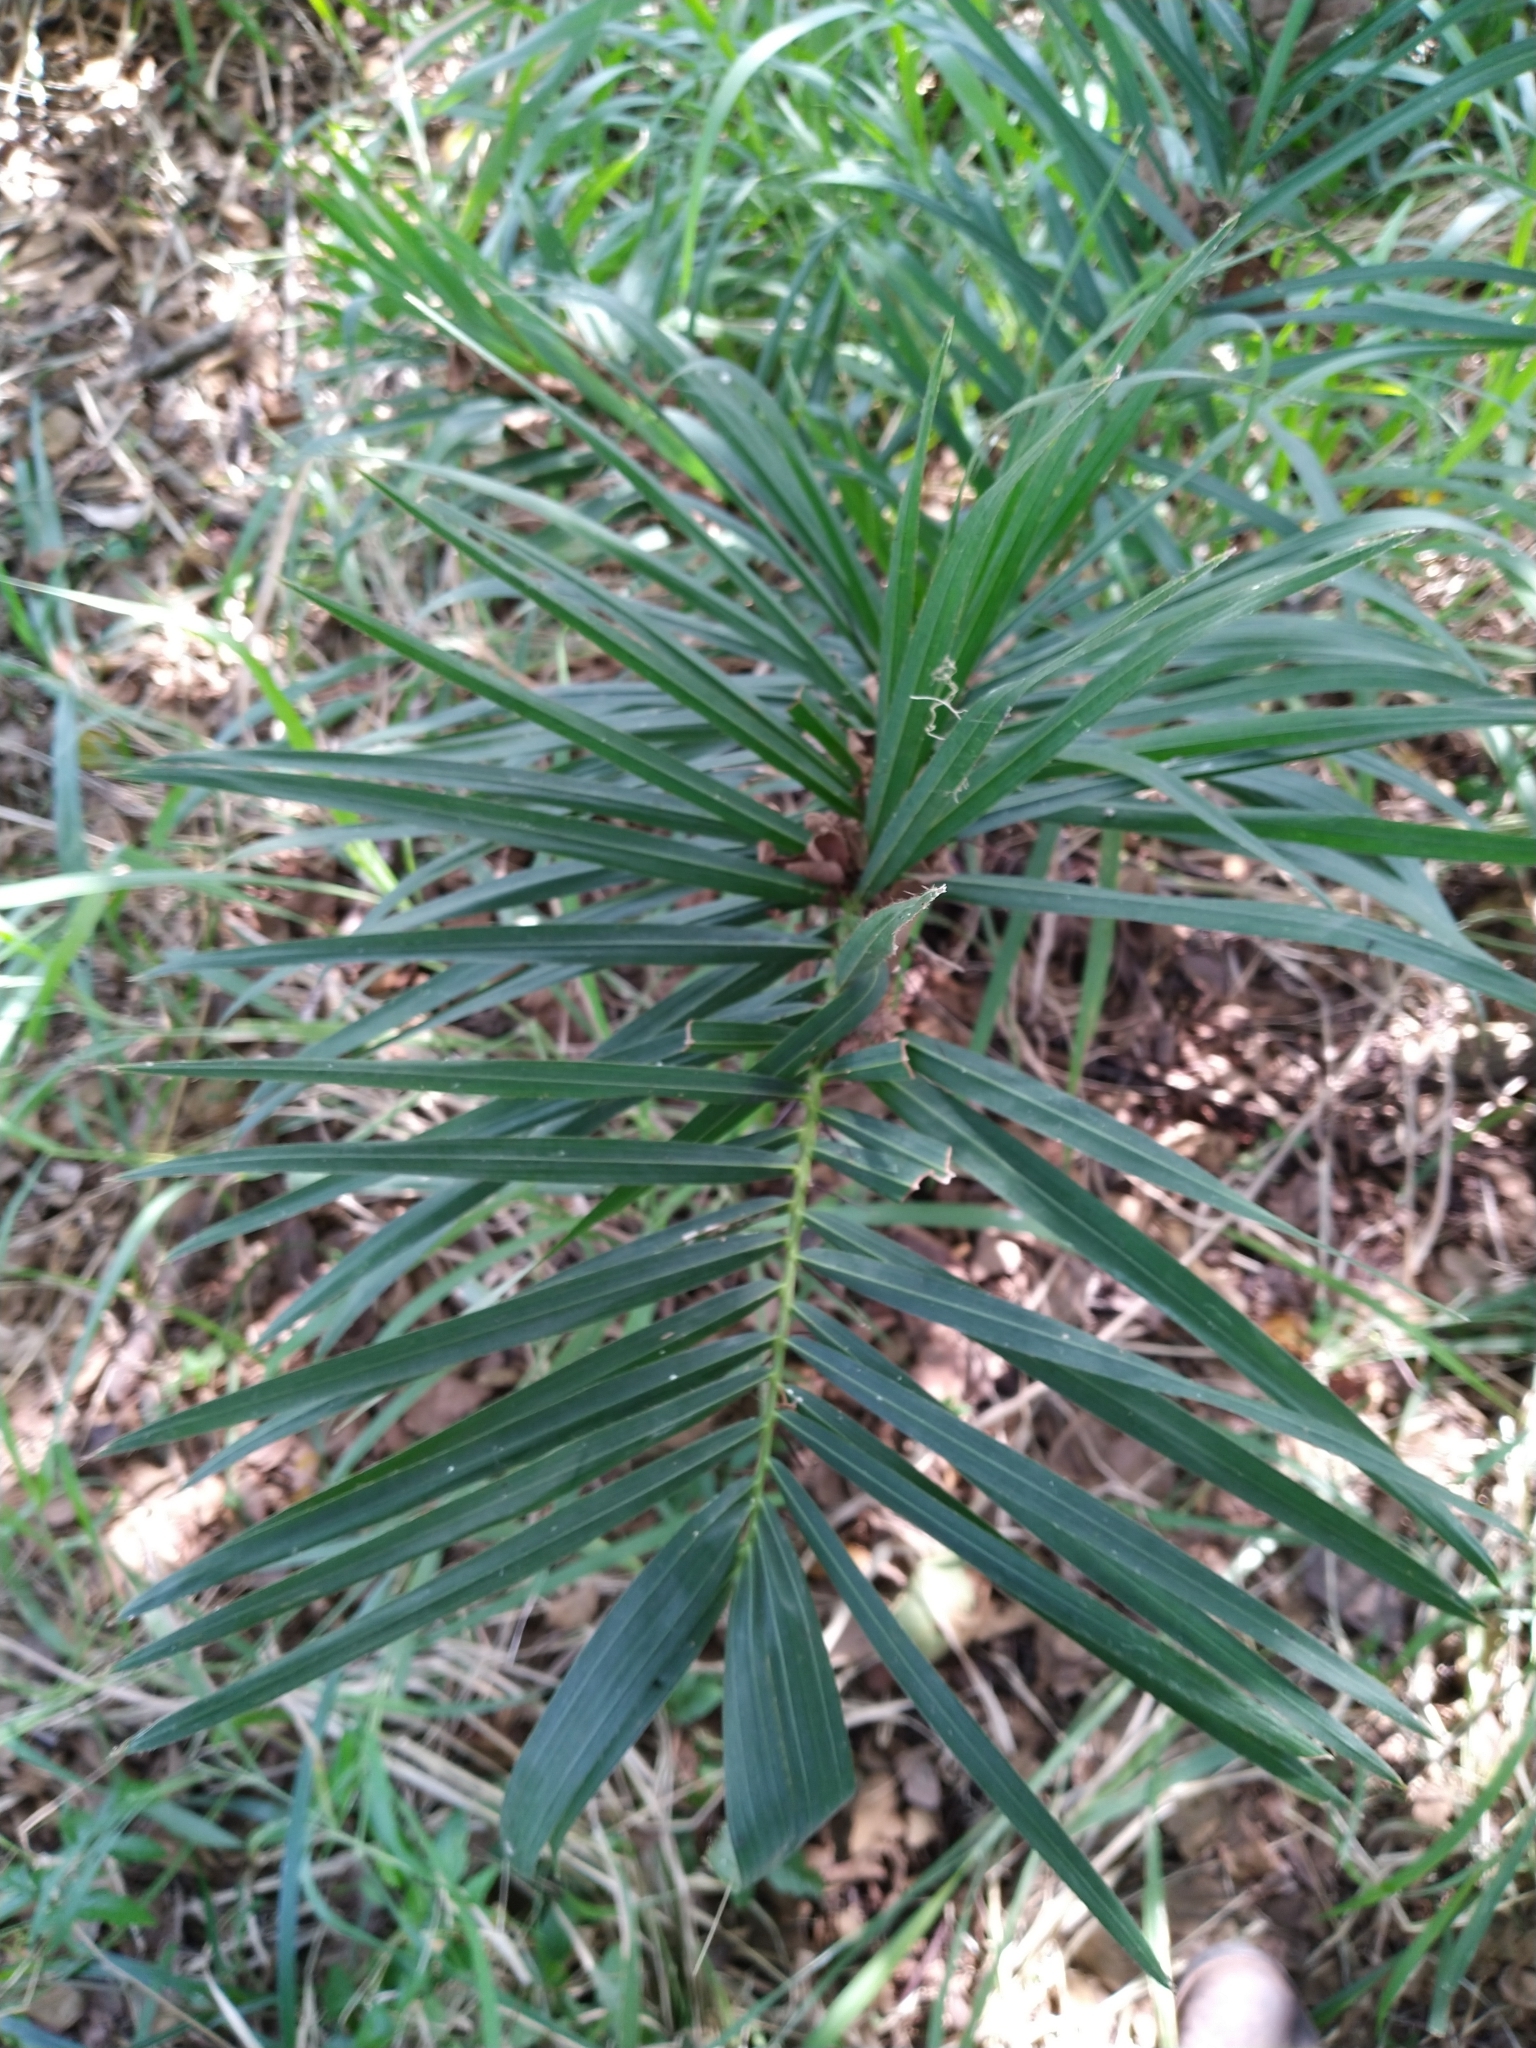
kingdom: Plantae
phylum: Tracheophyta
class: Liliopsida
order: Arecales
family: Arecaceae
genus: Acrocomia
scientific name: Acrocomia aculeata
